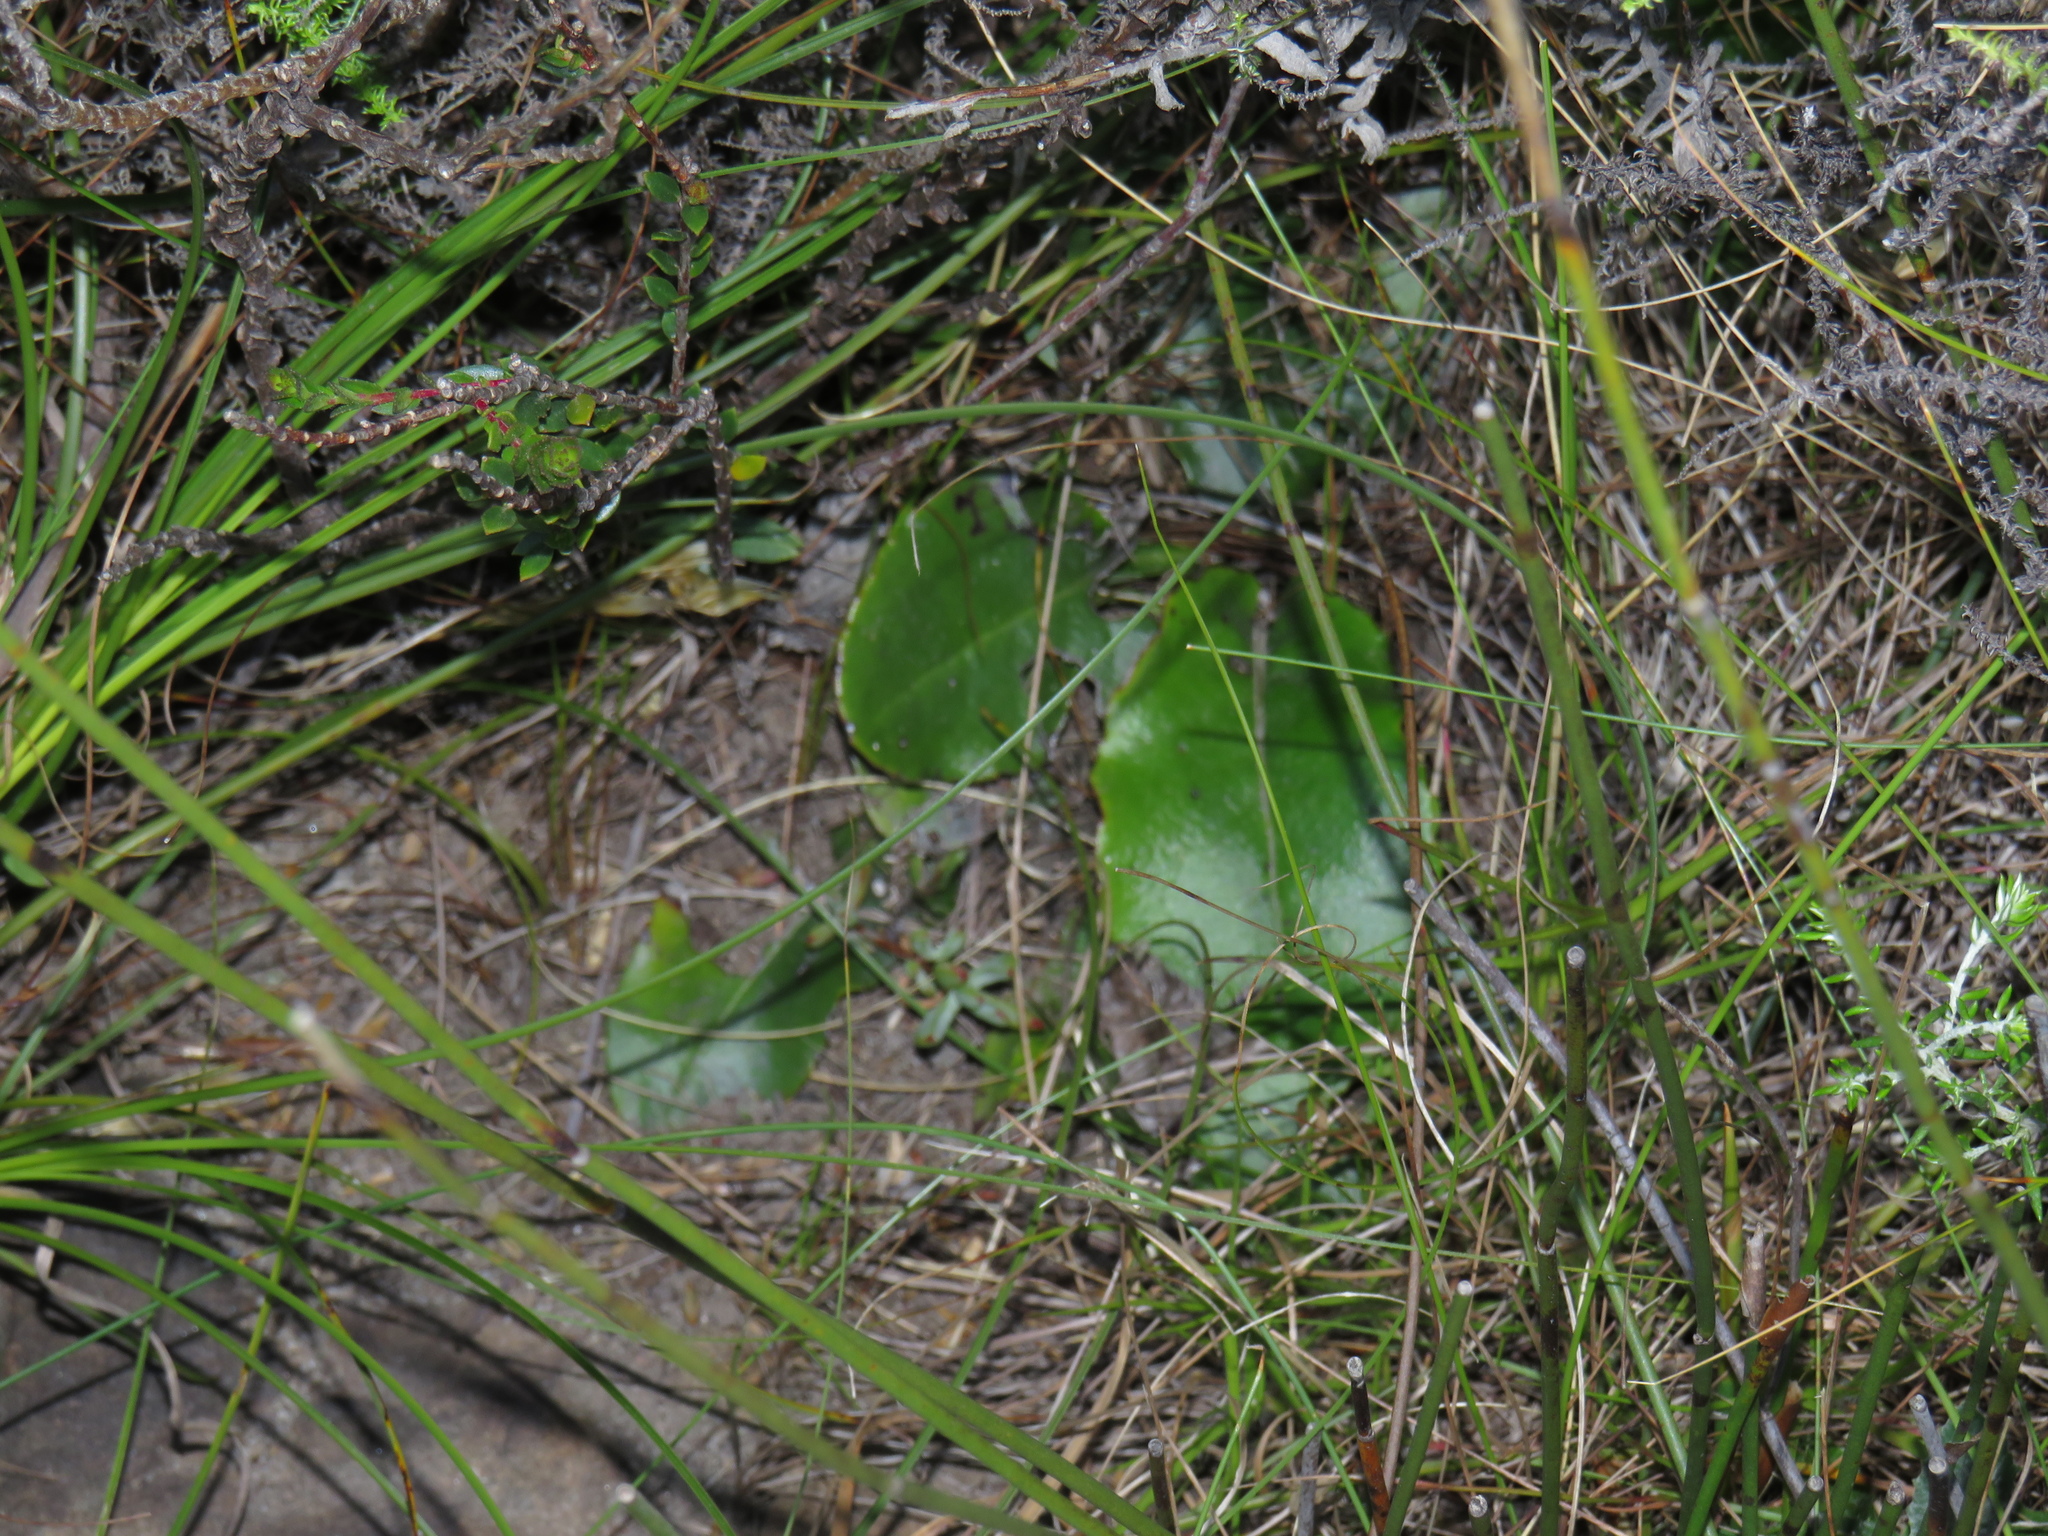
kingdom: Plantae
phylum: Tracheophyta
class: Magnoliopsida
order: Asterales
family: Asteraceae
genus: Gerbera
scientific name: Gerbera wrightii
